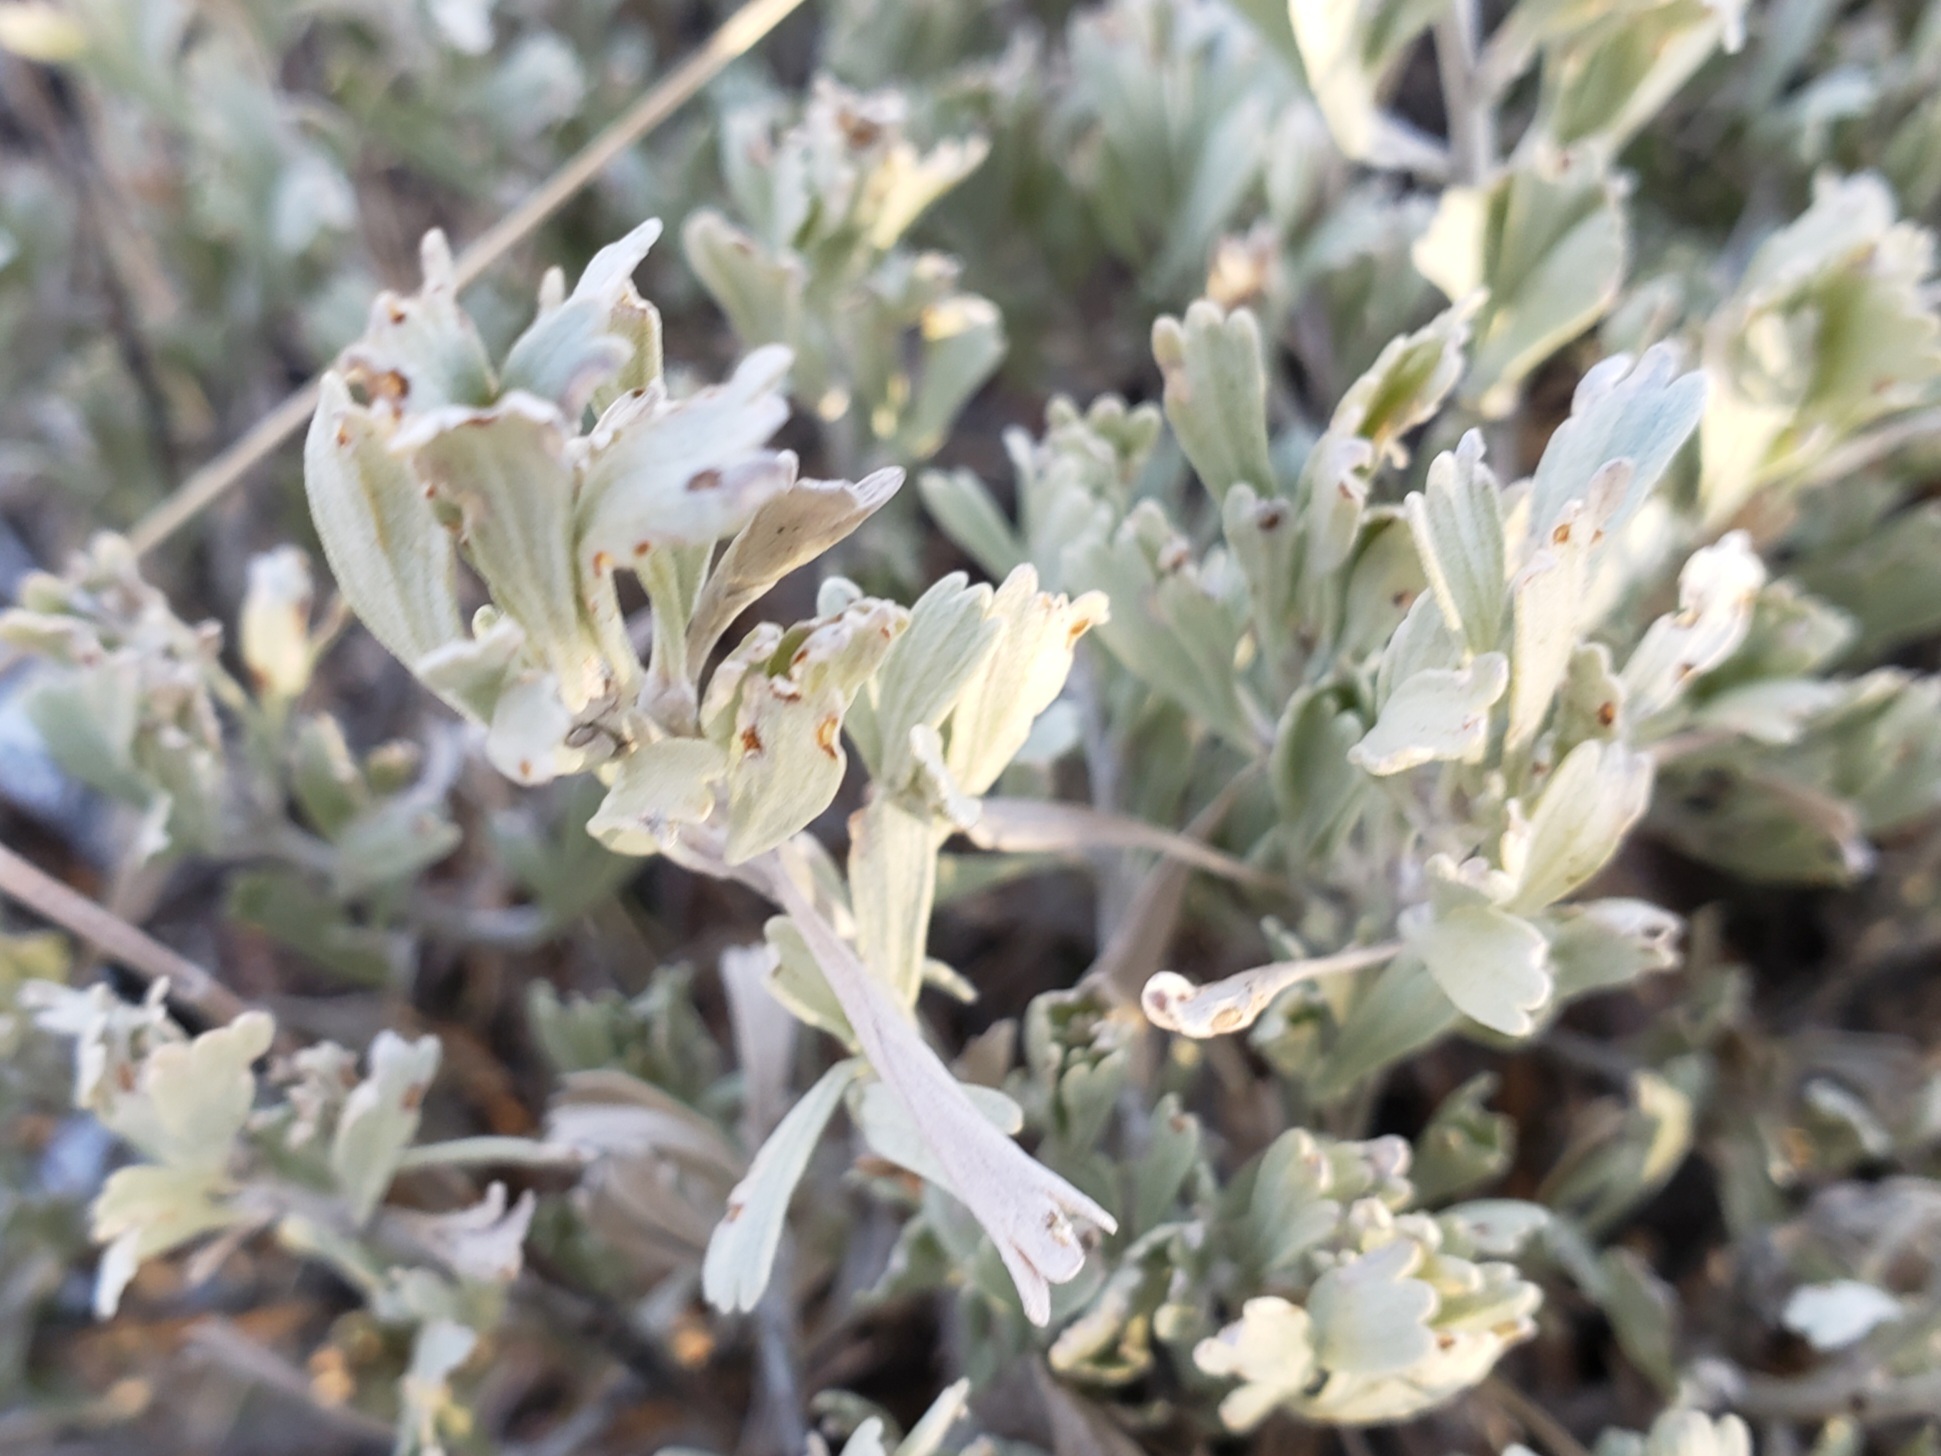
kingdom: Plantae
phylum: Tracheophyta
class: Magnoliopsida
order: Asterales
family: Asteraceae
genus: Artemisia
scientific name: Artemisia tridentata
